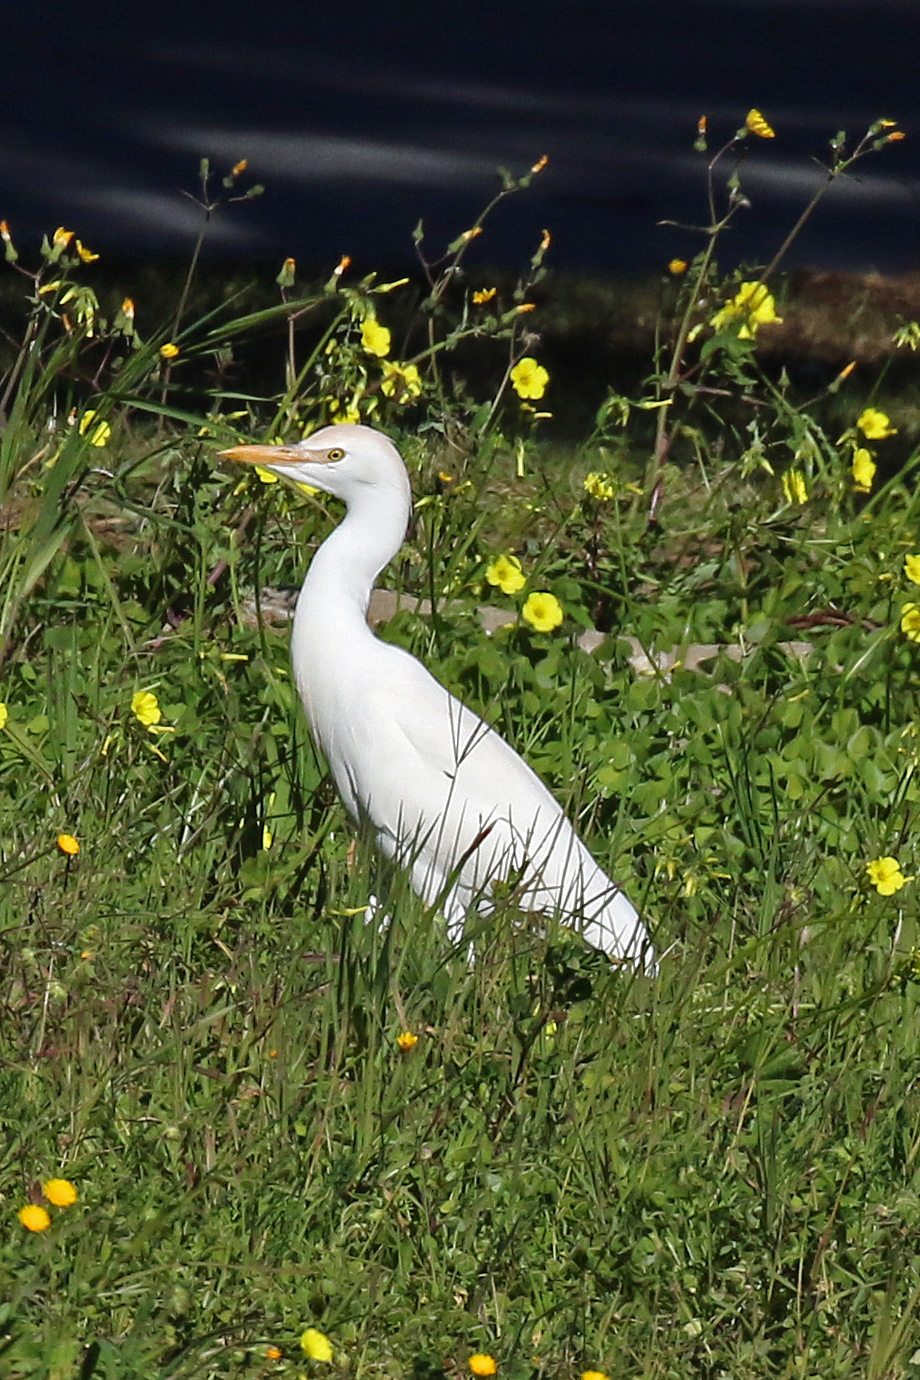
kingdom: Animalia
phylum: Chordata
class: Aves
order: Pelecaniformes
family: Ardeidae
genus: Bubulcus
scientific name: Bubulcus ibis
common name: Cattle egret
